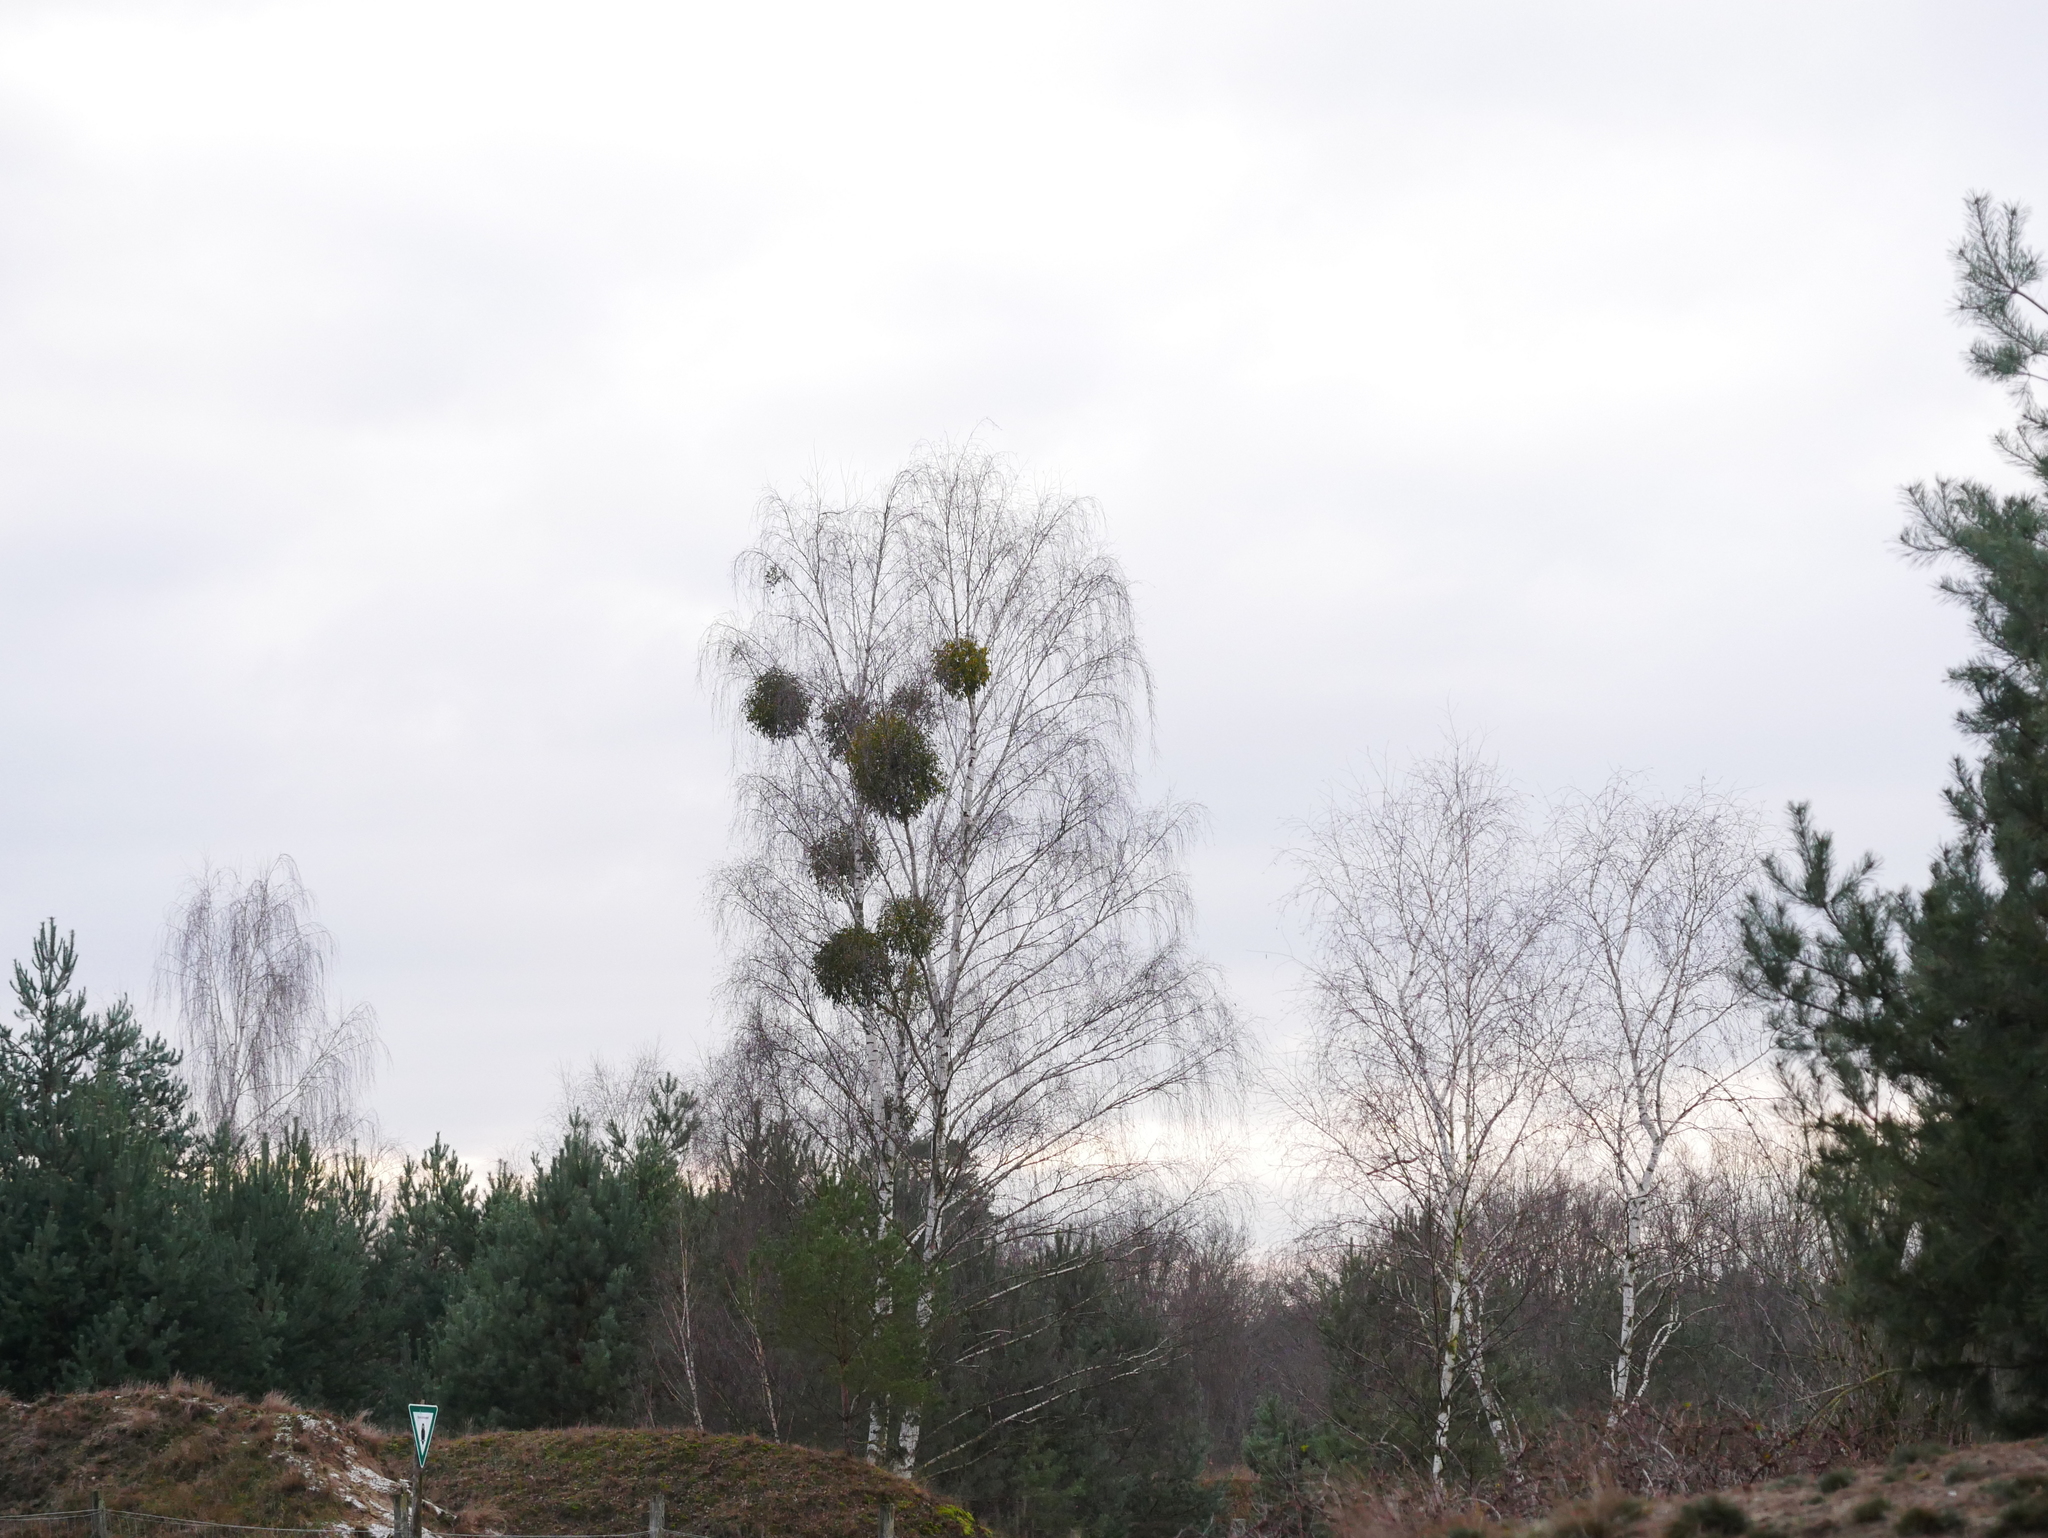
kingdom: Plantae
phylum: Tracheophyta
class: Magnoliopsida
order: Santalales
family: Viscaceae
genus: Viscum
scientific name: Viscum album
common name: Mistletoe
